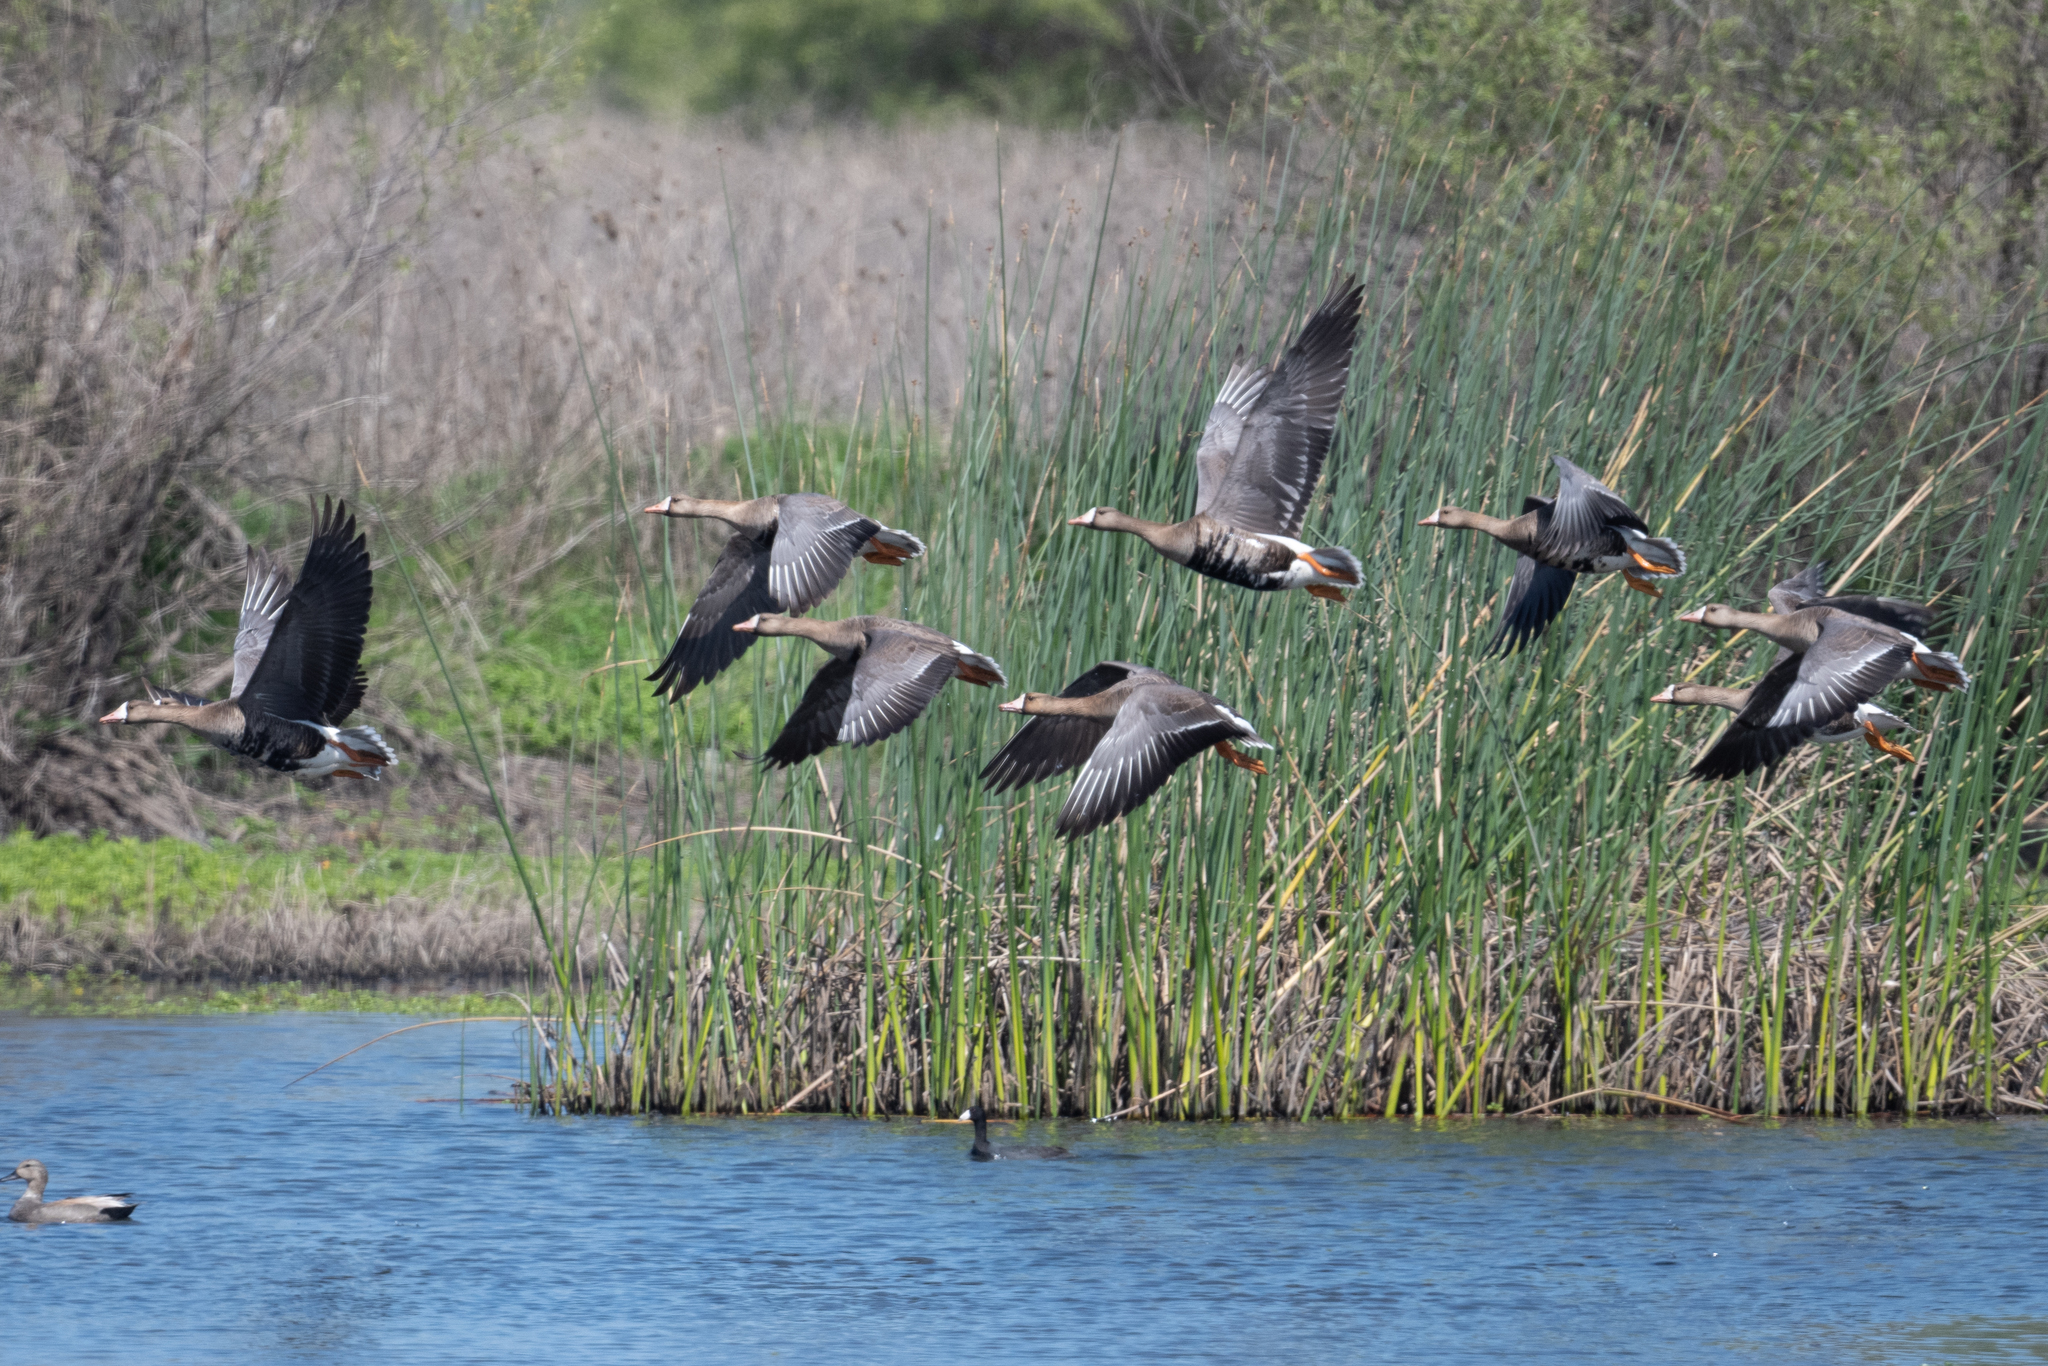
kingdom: Animalia
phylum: Chordata
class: Aves
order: Anseriformes
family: Anatidae
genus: Anser
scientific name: Anser albifrons
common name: Greater white-fronted goose
